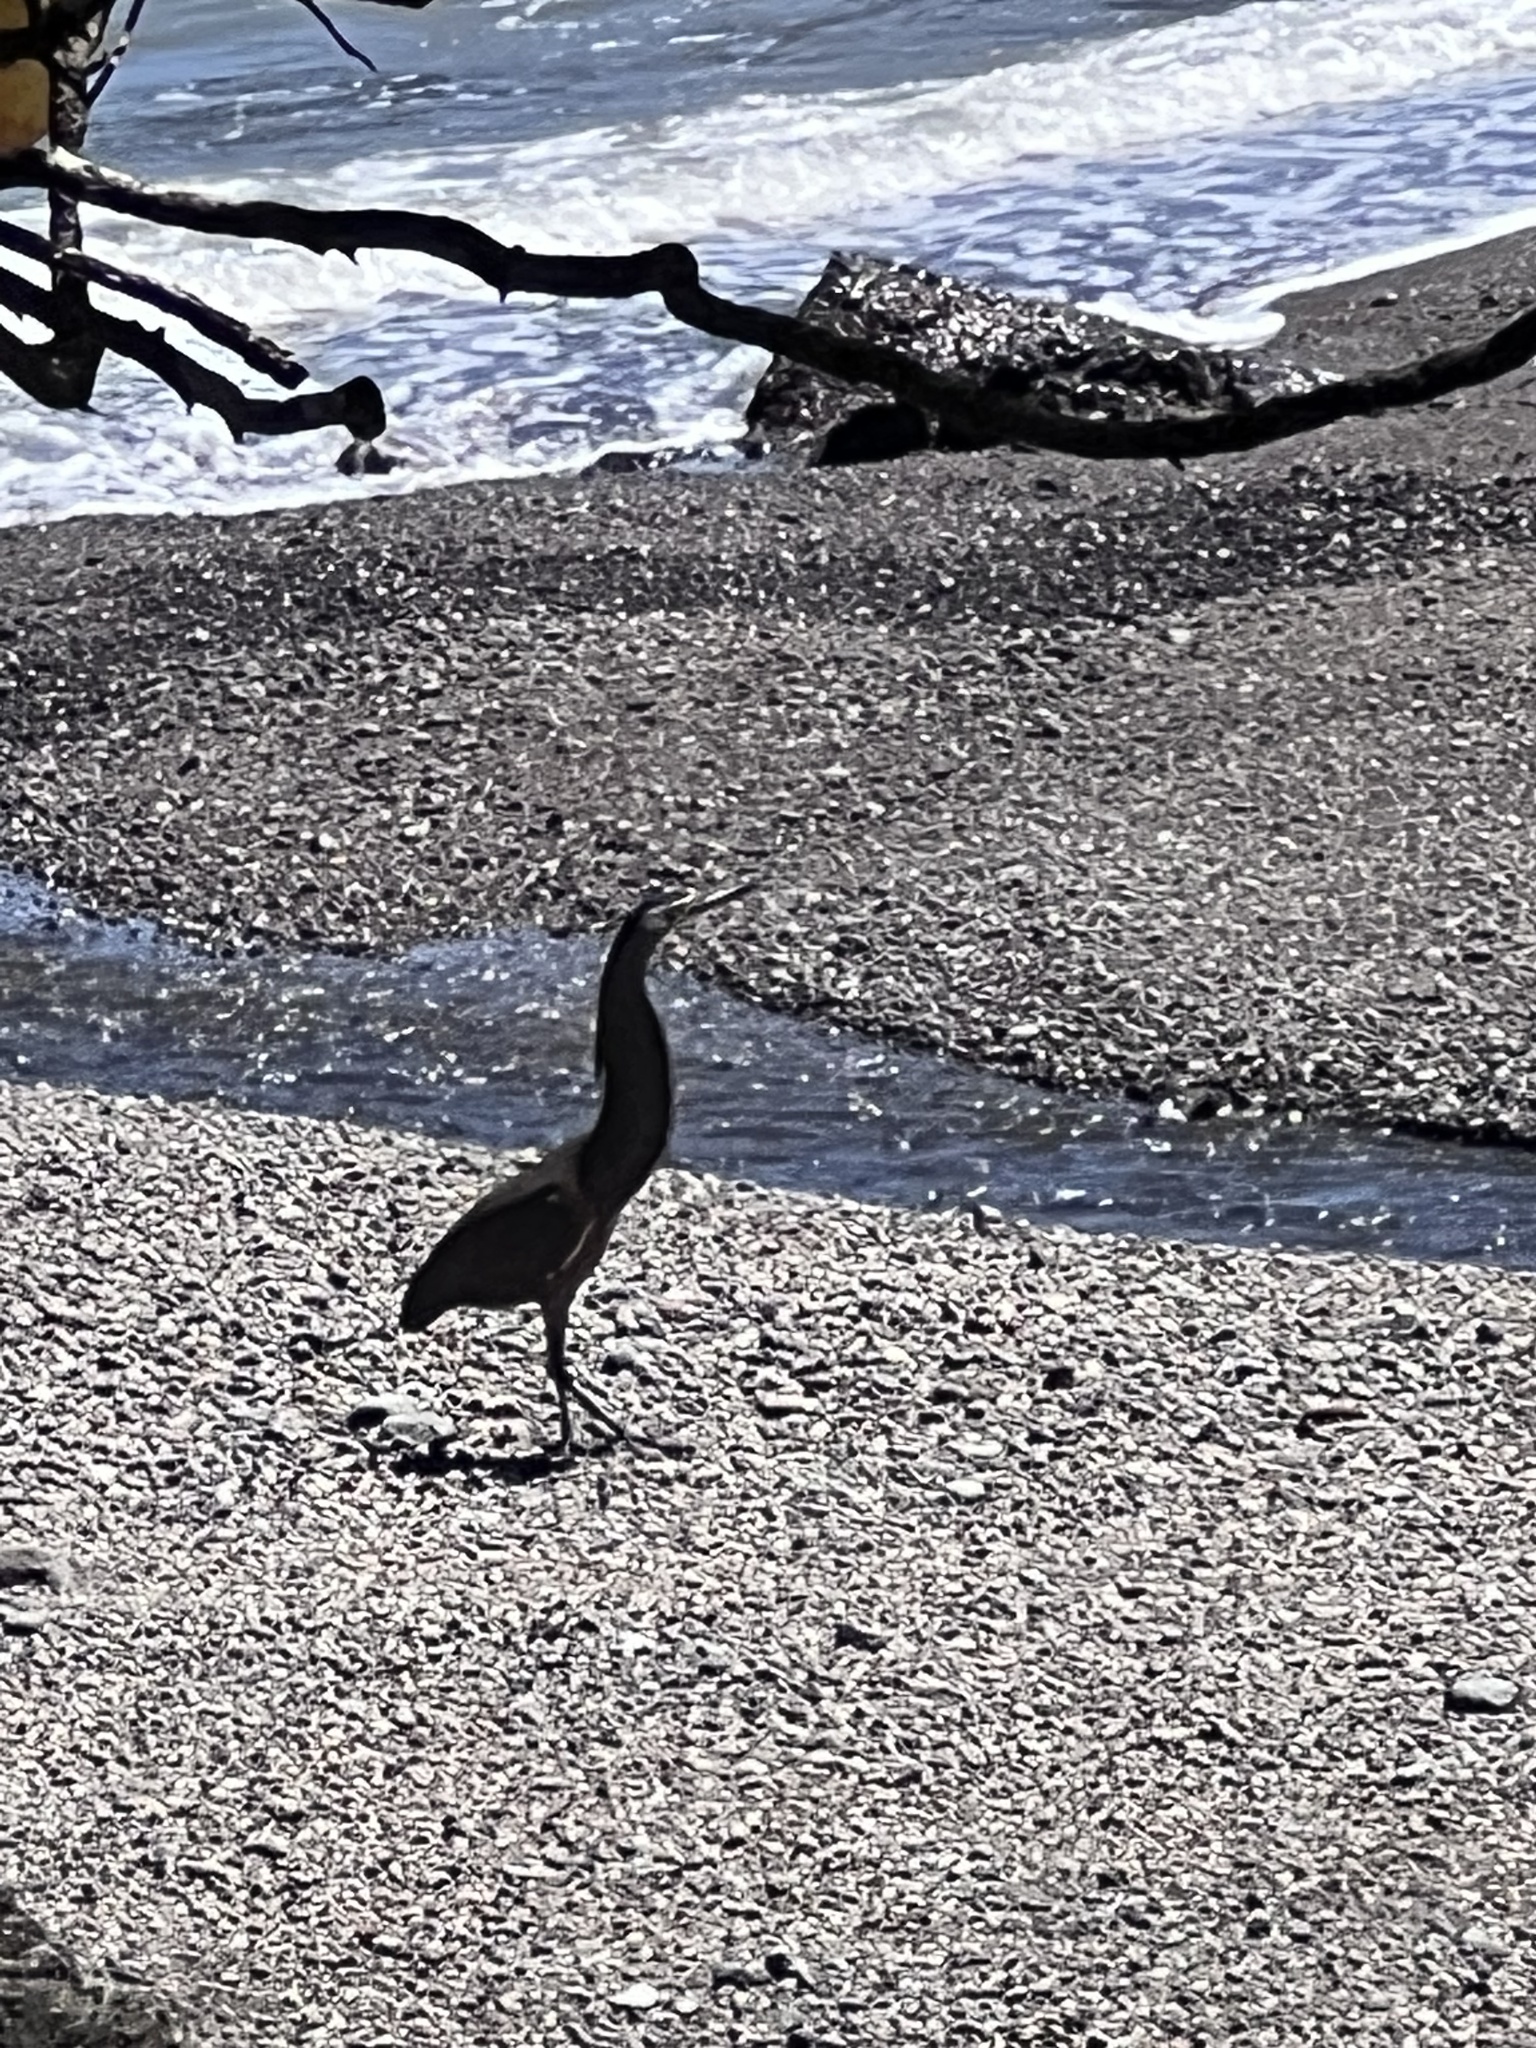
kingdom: Animalia
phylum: Chordata
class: Aves
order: Pelecaniformes
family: Ardeidae
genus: Tigrisoma
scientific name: Tigrisoma mexicanum
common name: Bare-throated tiger-heron
